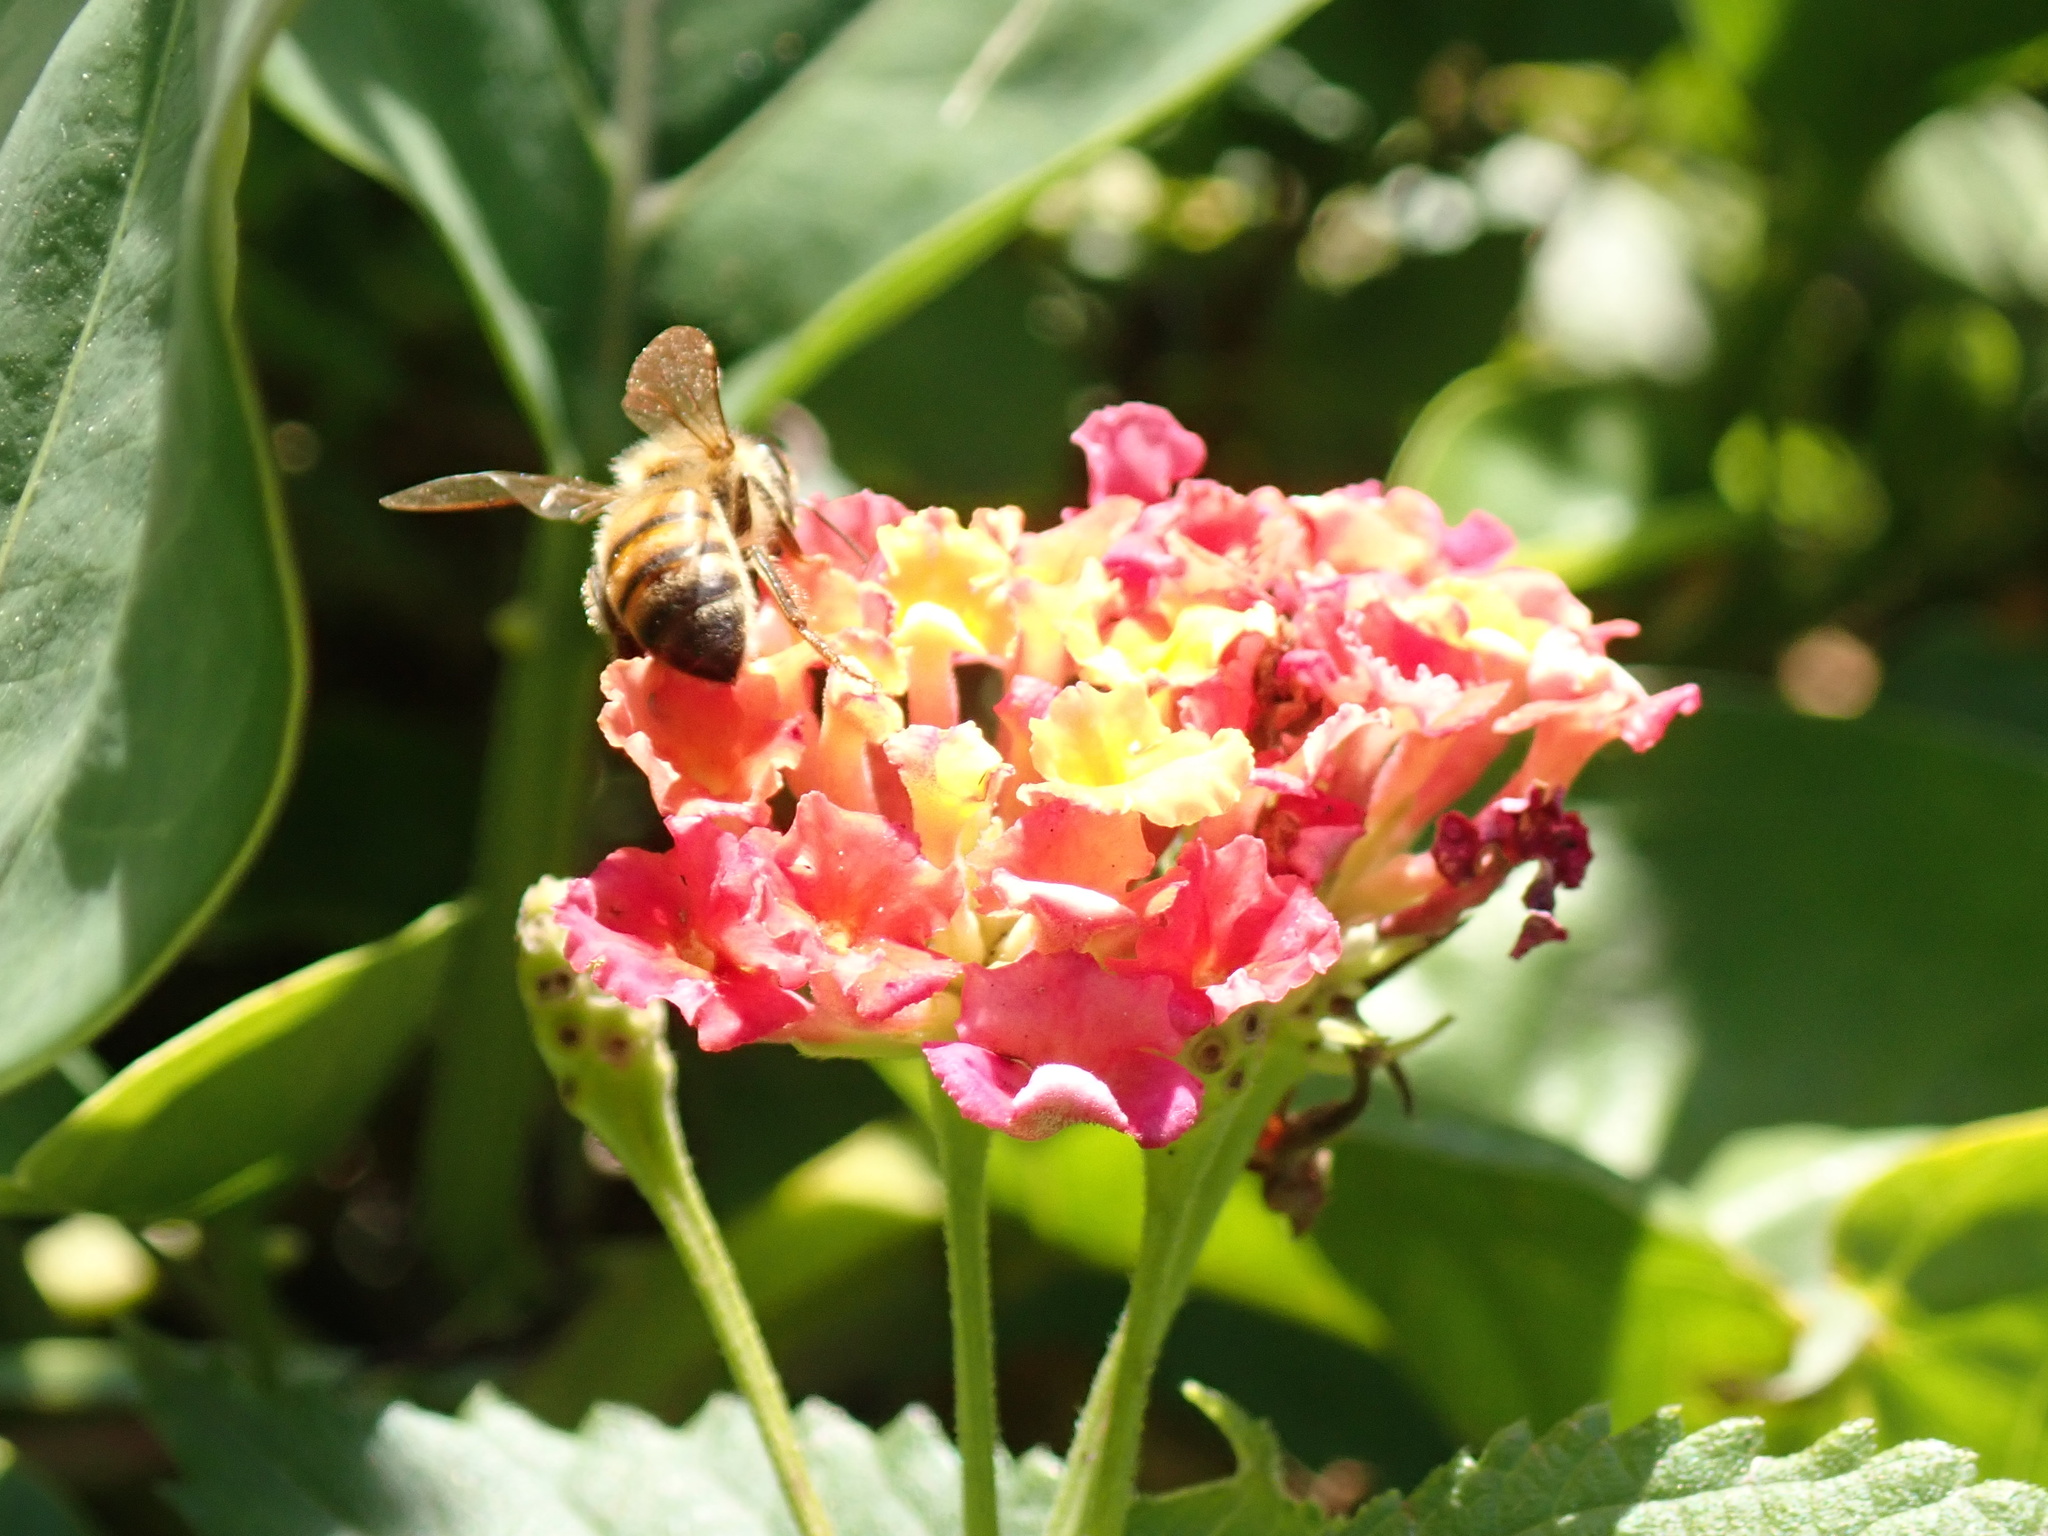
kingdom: Animalia
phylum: Arthropoda
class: Insecta
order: Hymenoptera
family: Apidae
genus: Apis
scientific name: Apis mellifera
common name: Honey bee
